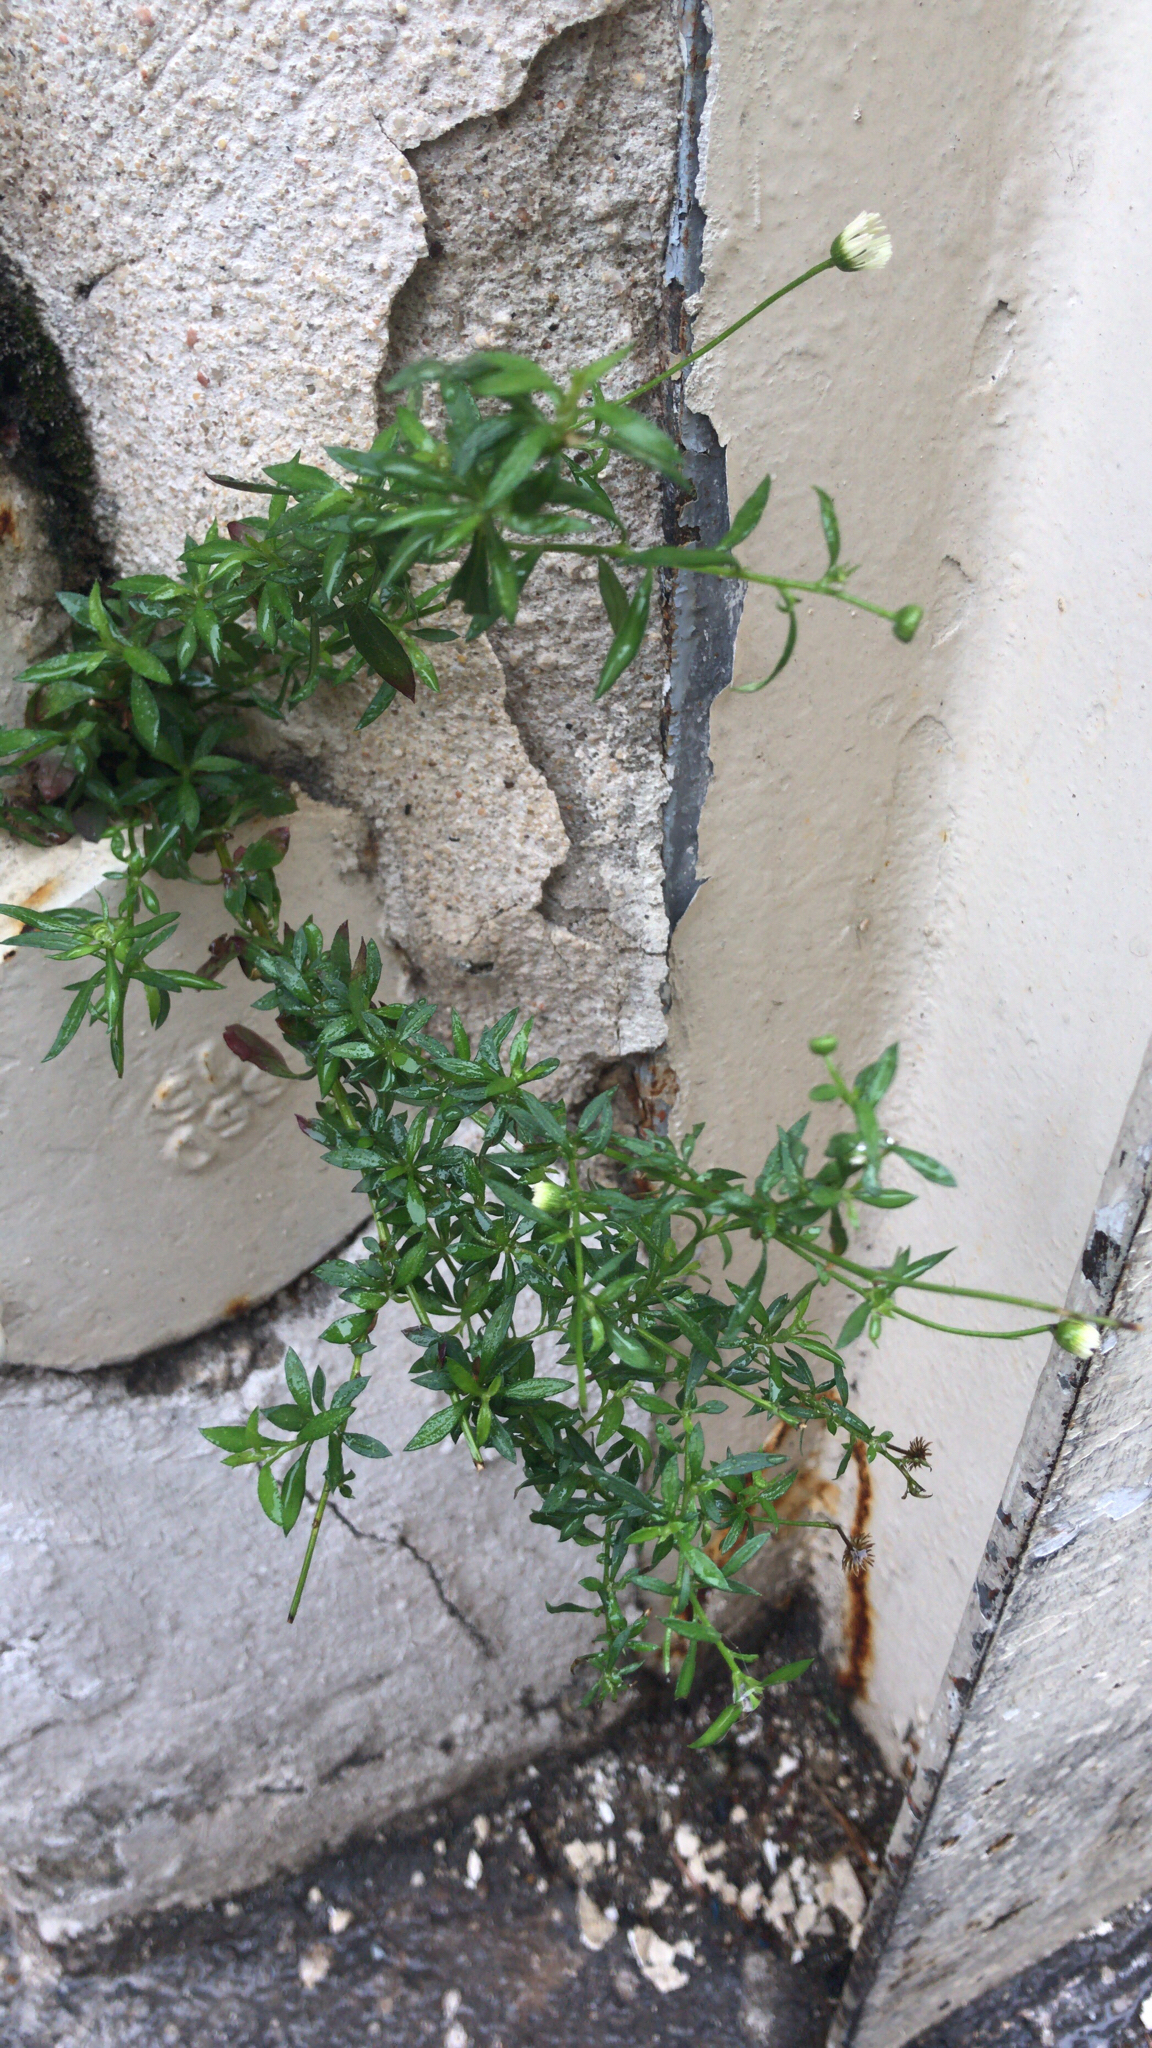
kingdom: Plantae
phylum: Tracheophyta
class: Magnoliopsida
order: Asterales
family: Asteraceae
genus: Erigeron
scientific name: Erigeron karvinskianus
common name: Mexican fleabane
